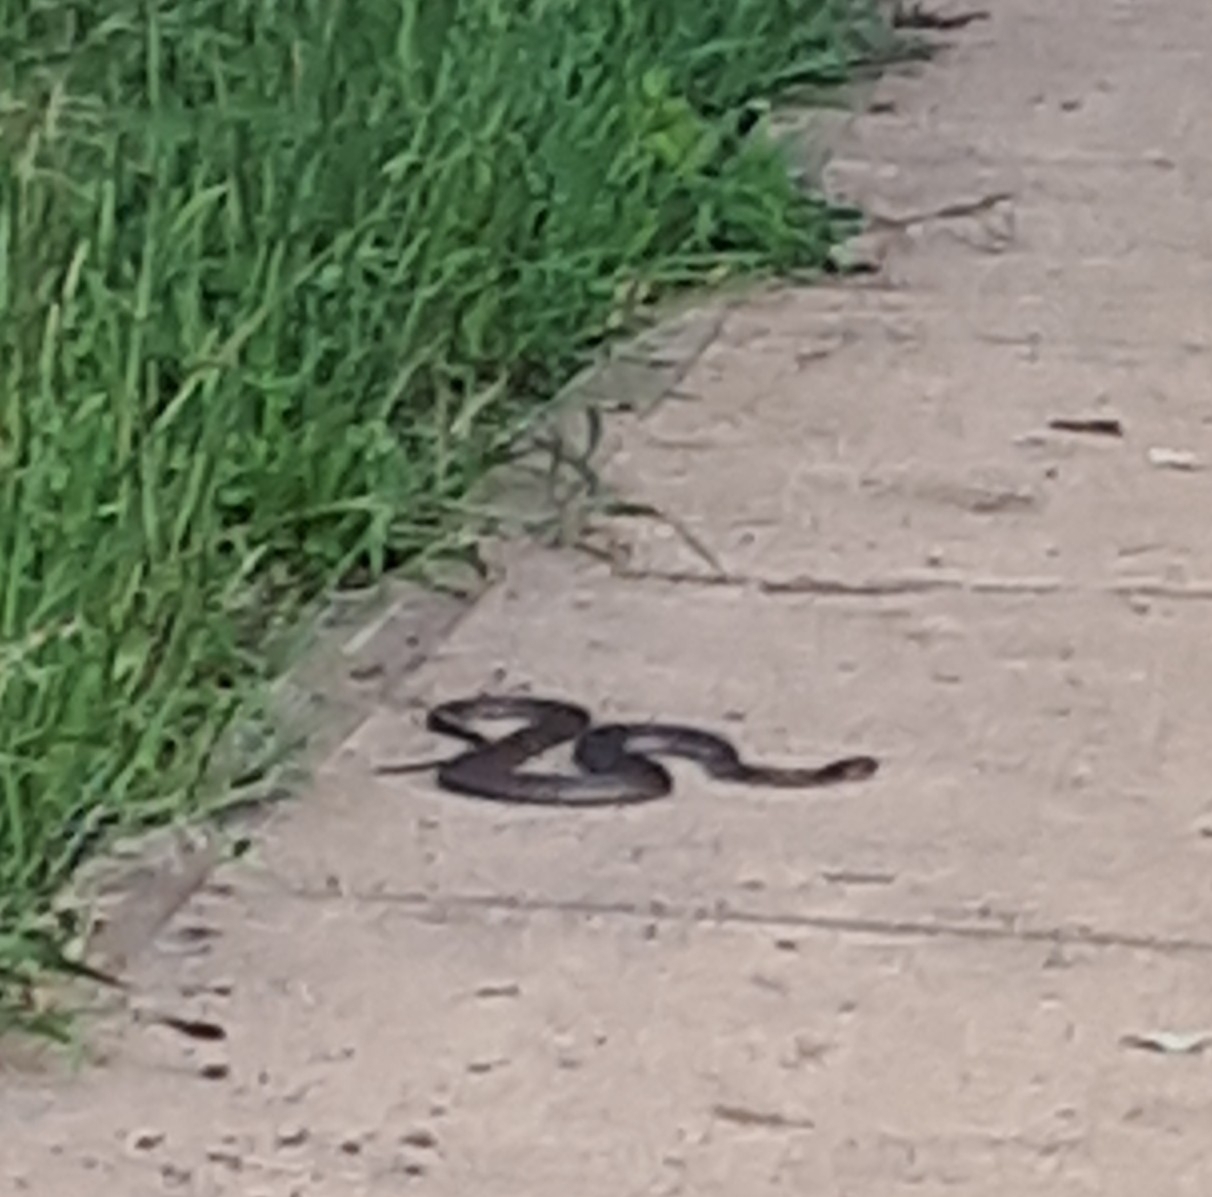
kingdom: Animalia
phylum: Chordata
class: Squamata
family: Elapidae
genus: Pseudonaja
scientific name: Pseudonaja textilis
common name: Eastern brown snake
